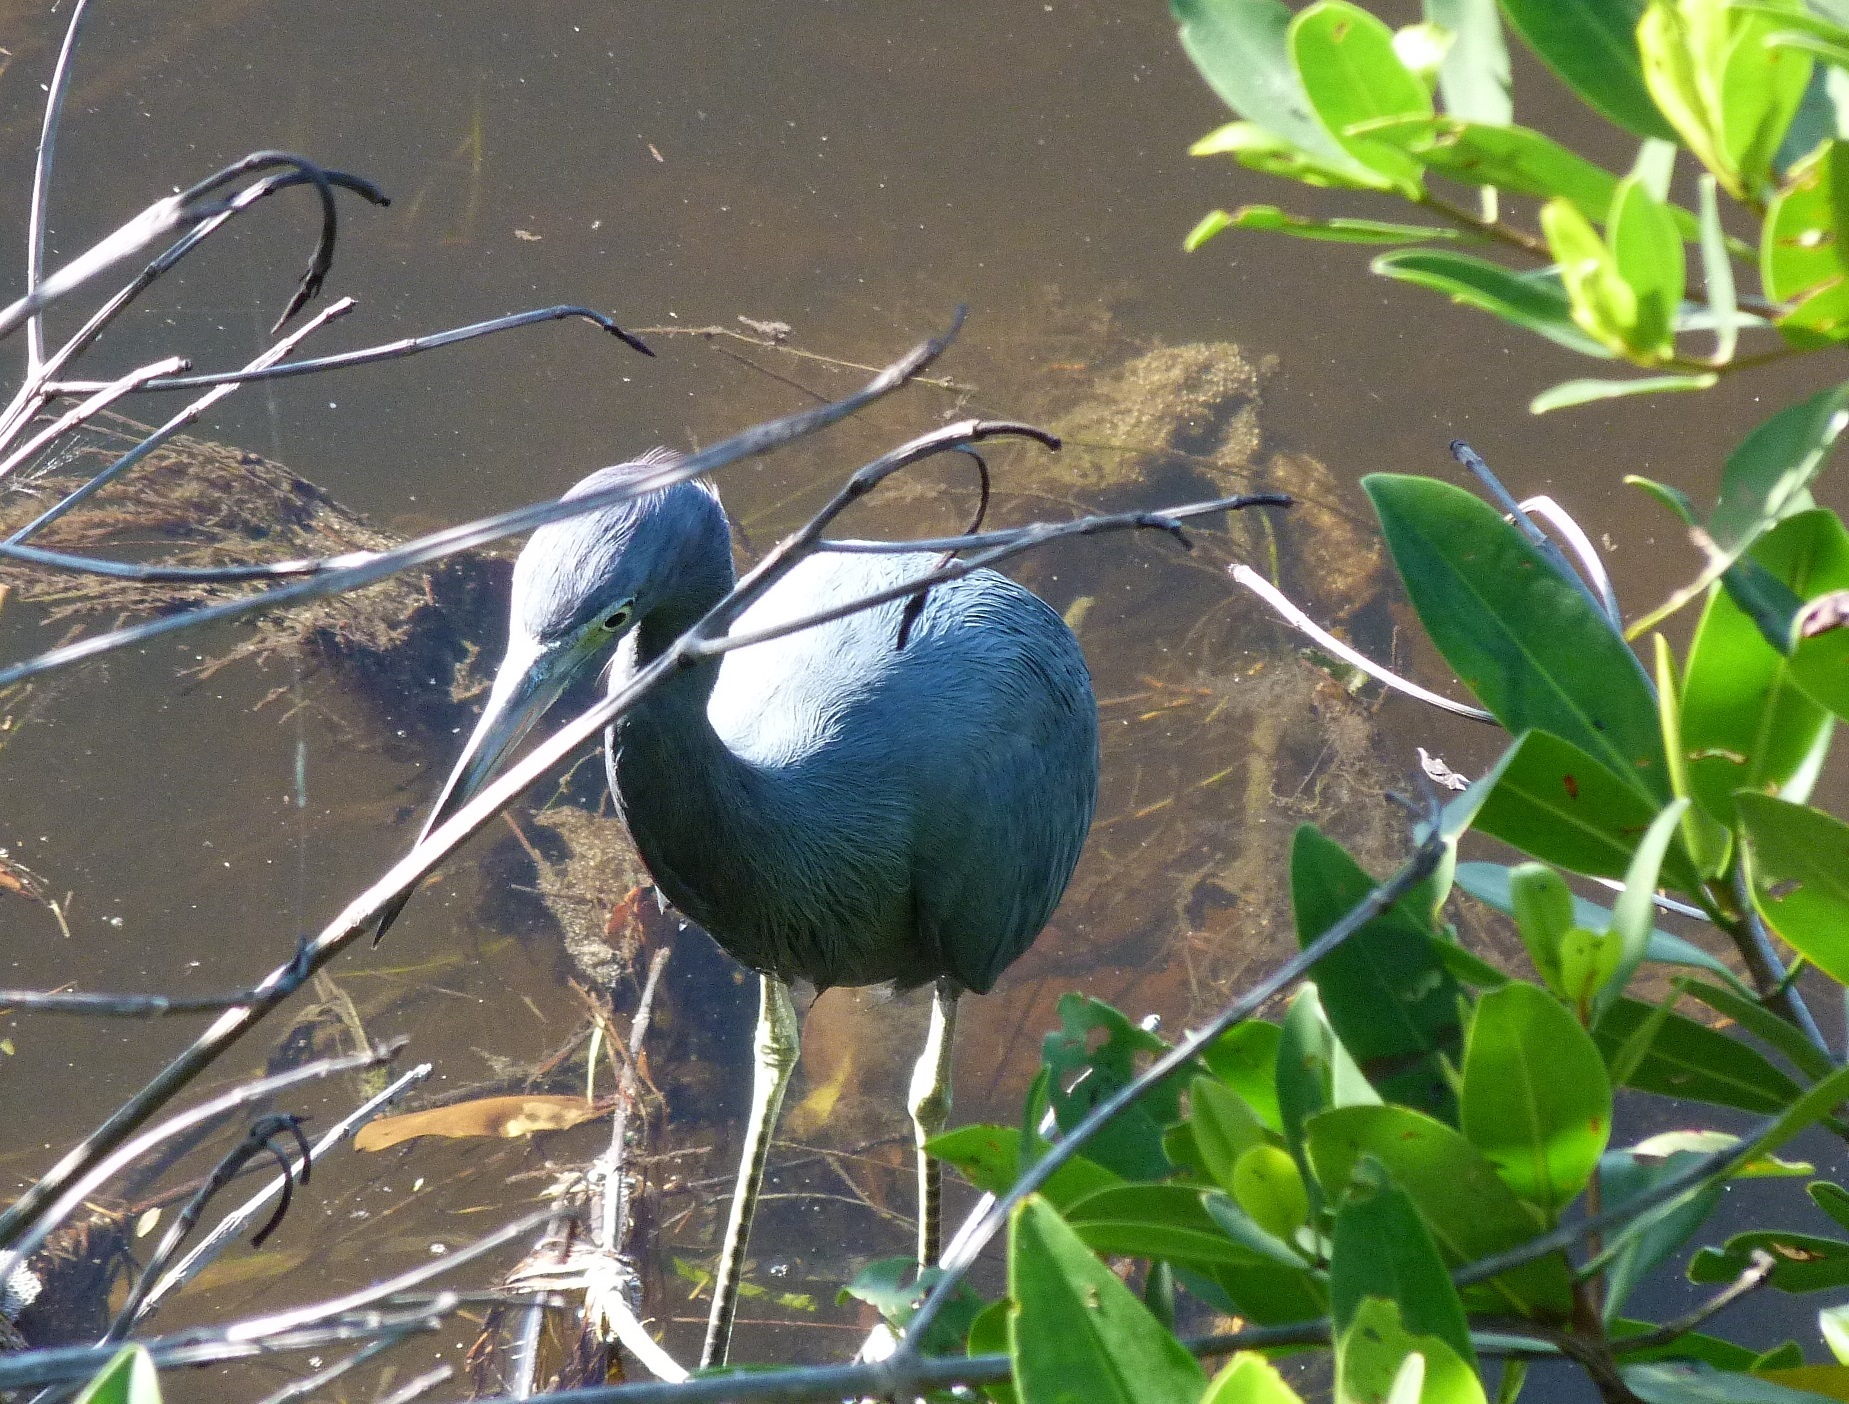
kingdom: Animalia
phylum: Chordata
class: Aves
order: Pelecaniformes
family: Ardeidae
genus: Egretta
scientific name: Egretta caerulea
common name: Little blue heron
